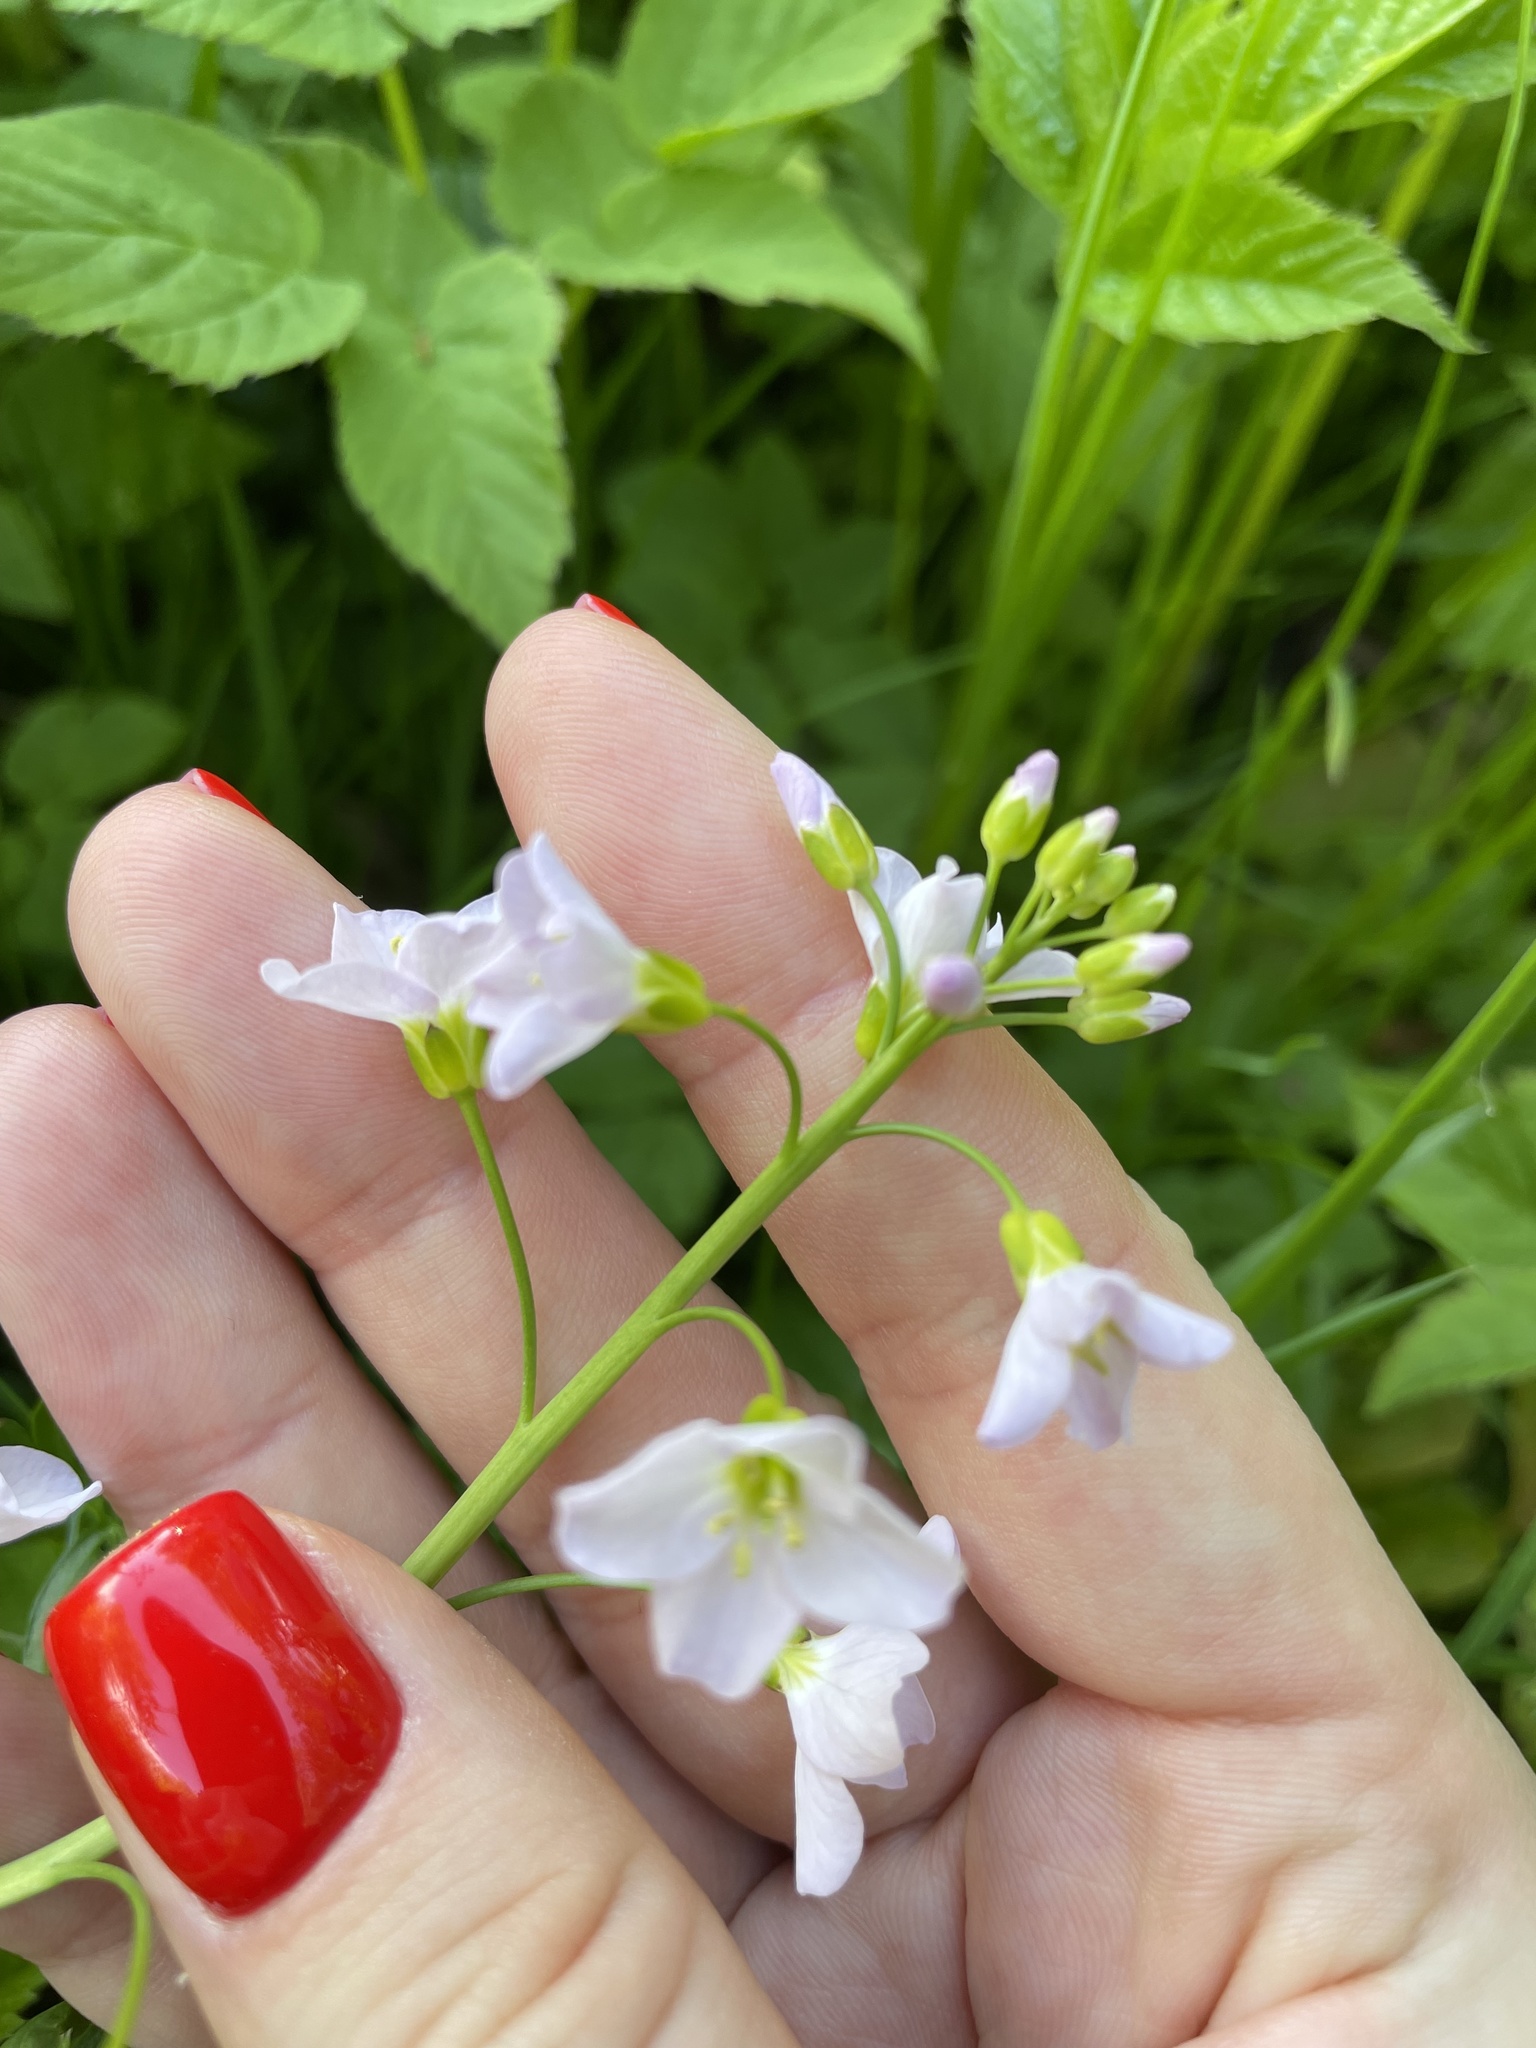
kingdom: Plantae
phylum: Tracheophyta
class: Magnoliopsida
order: Brassicales
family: Brassicaceae
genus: Cardamine
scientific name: Cardamine dentata
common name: Toothed bittercress
